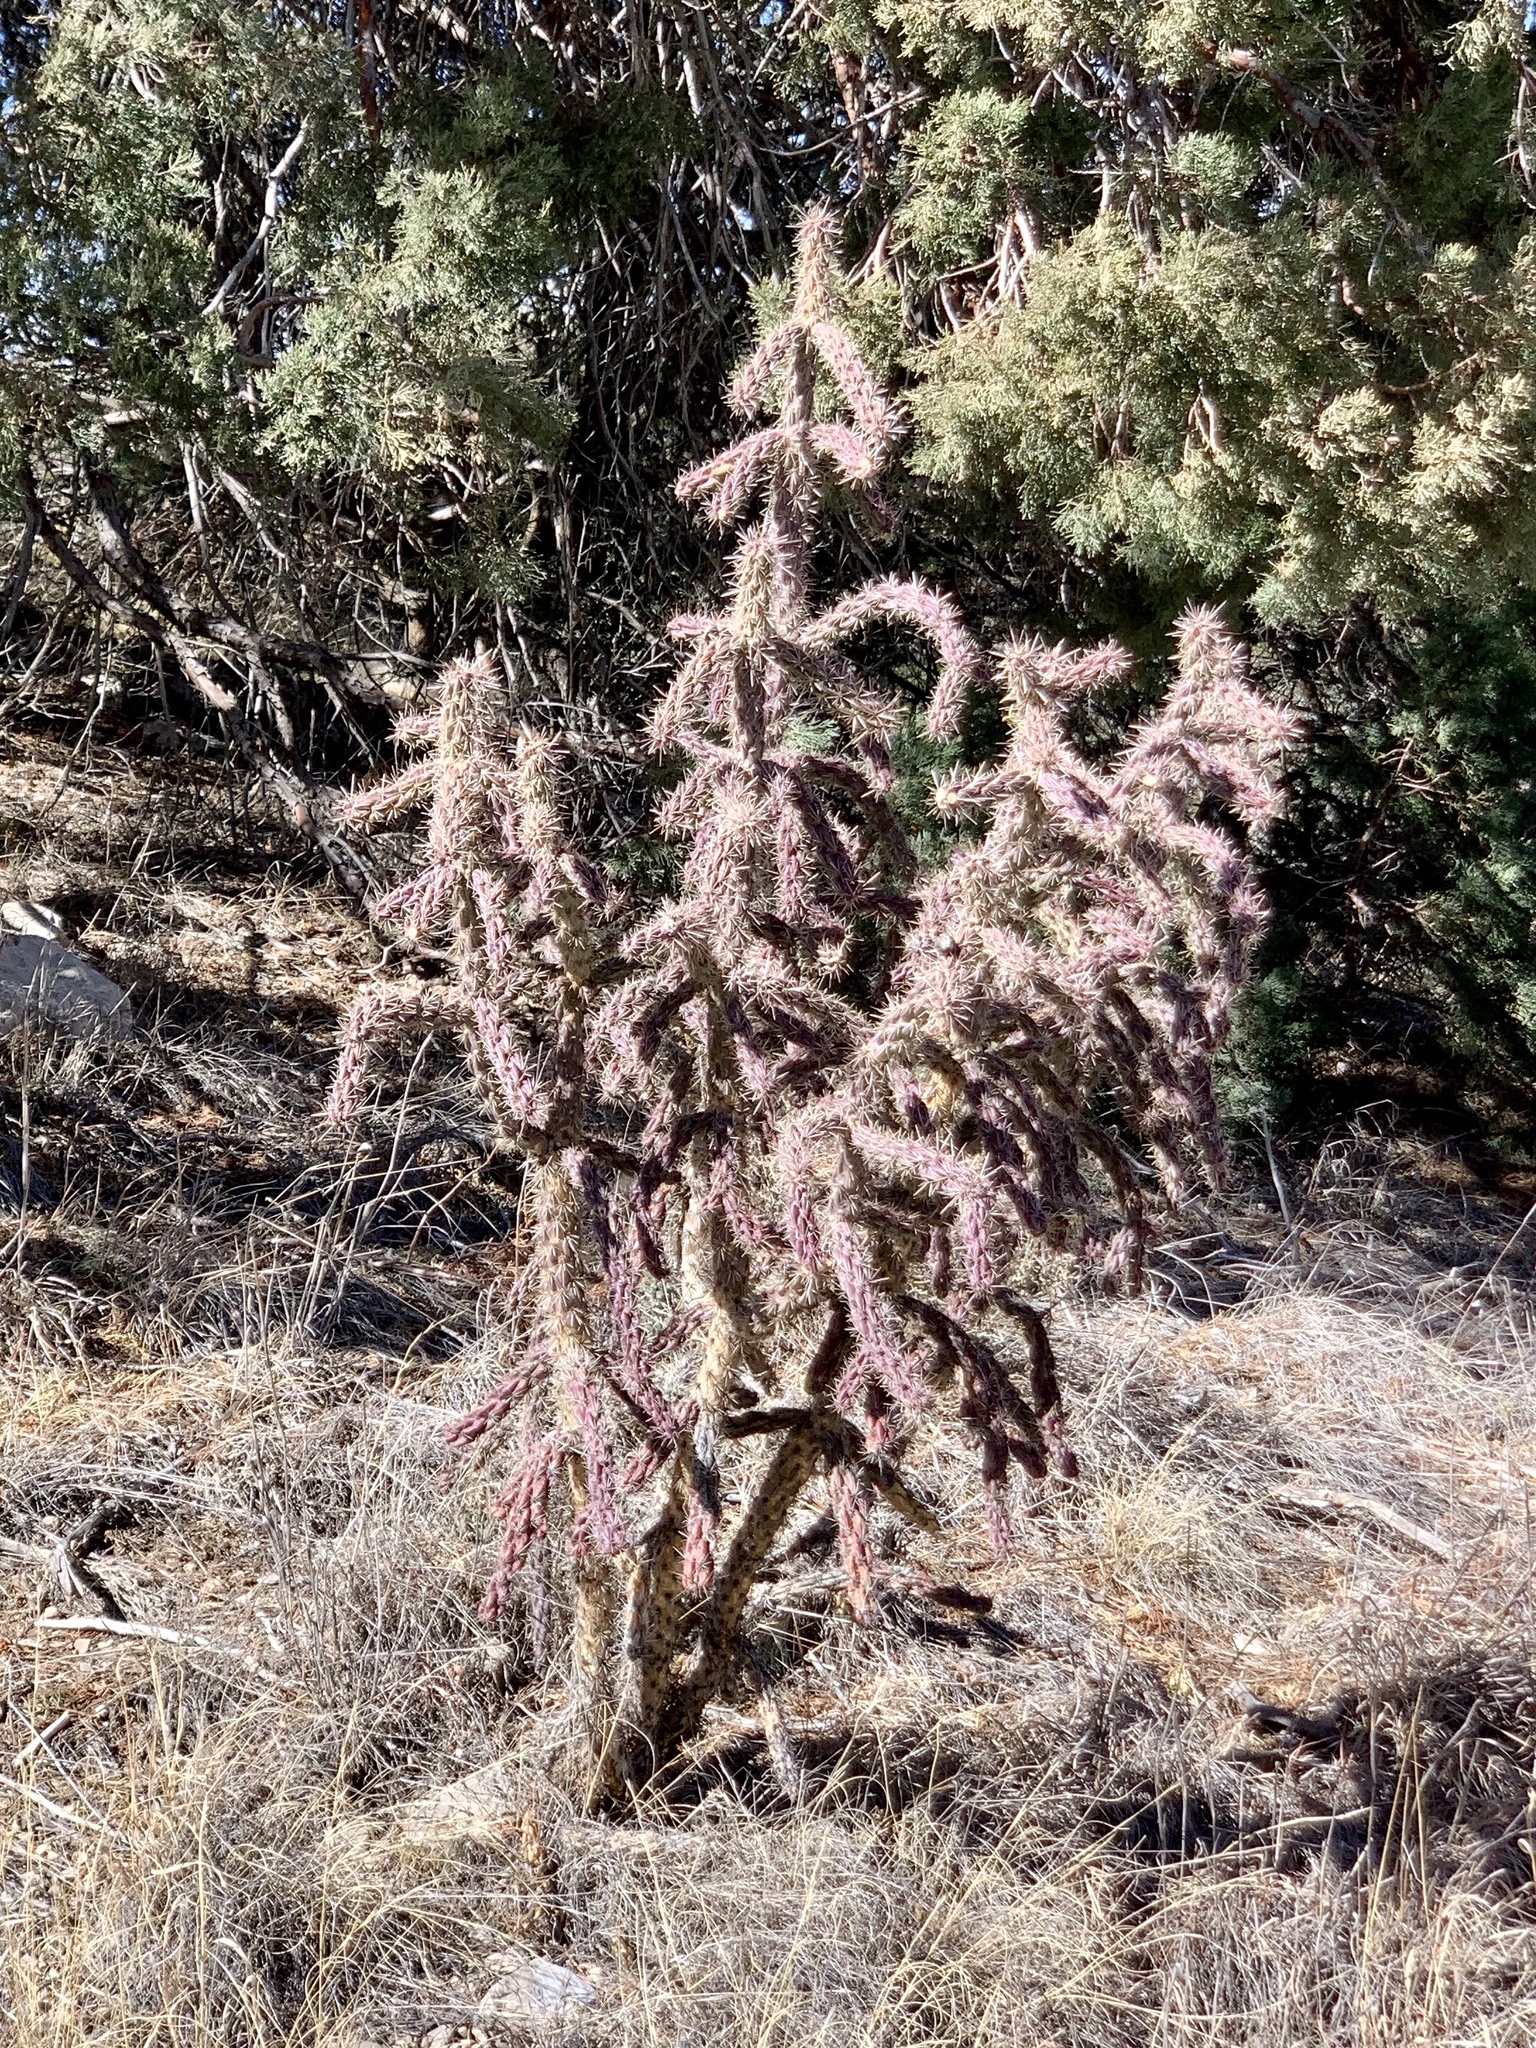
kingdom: Plantae
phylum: Tracheophyta
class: Magnoliopsida
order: Caryophyllales
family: Cactaceae
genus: Cylindropuntia
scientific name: Cylindropuntia imbricata
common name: Candelabrum cactus
